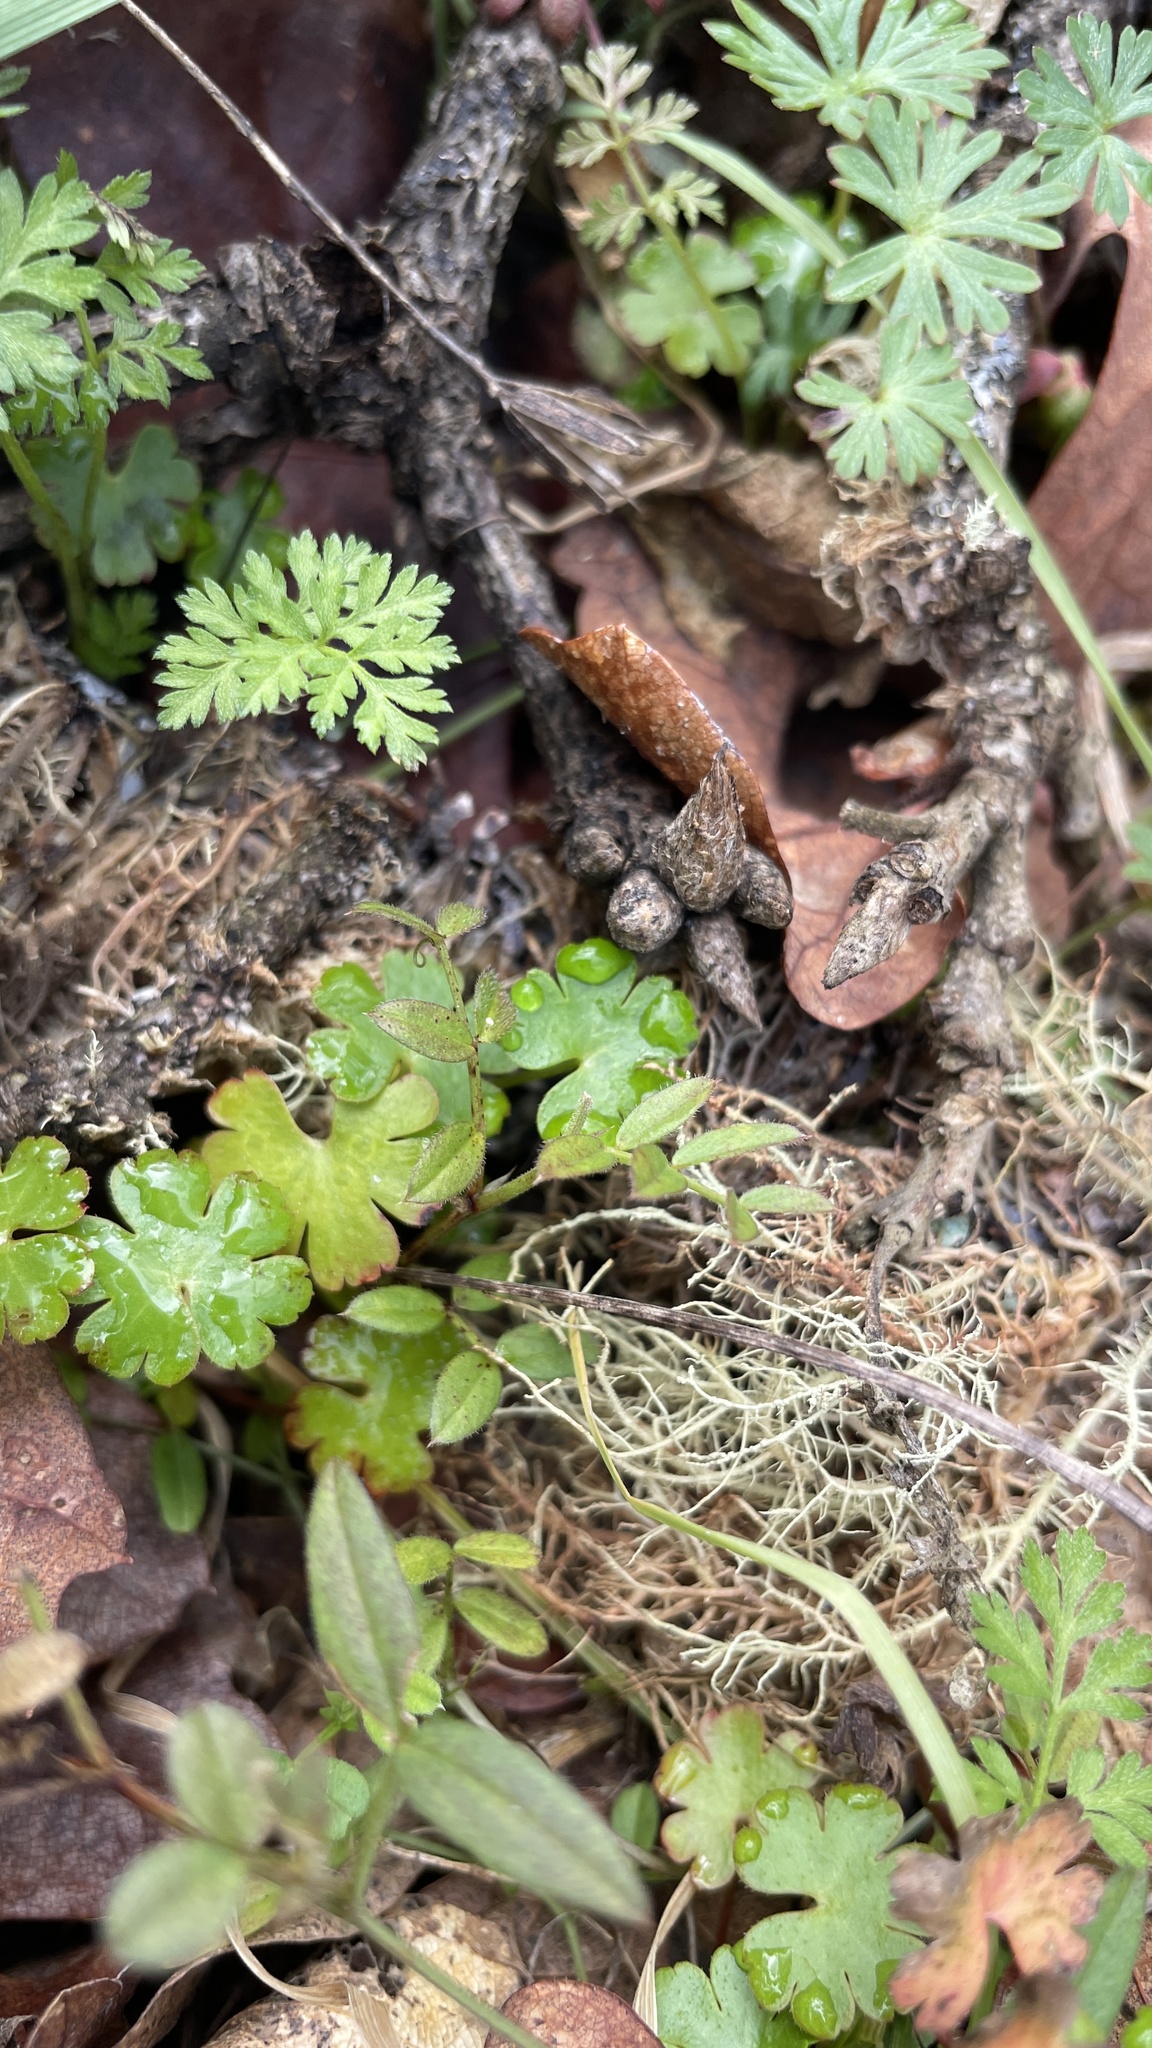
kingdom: Plantae
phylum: Tracheophyta
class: Magnoliopsida
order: Geraniales
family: Geraniaceae
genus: Geranium
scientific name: Geranium lucidum
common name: Shining crane's-bill
